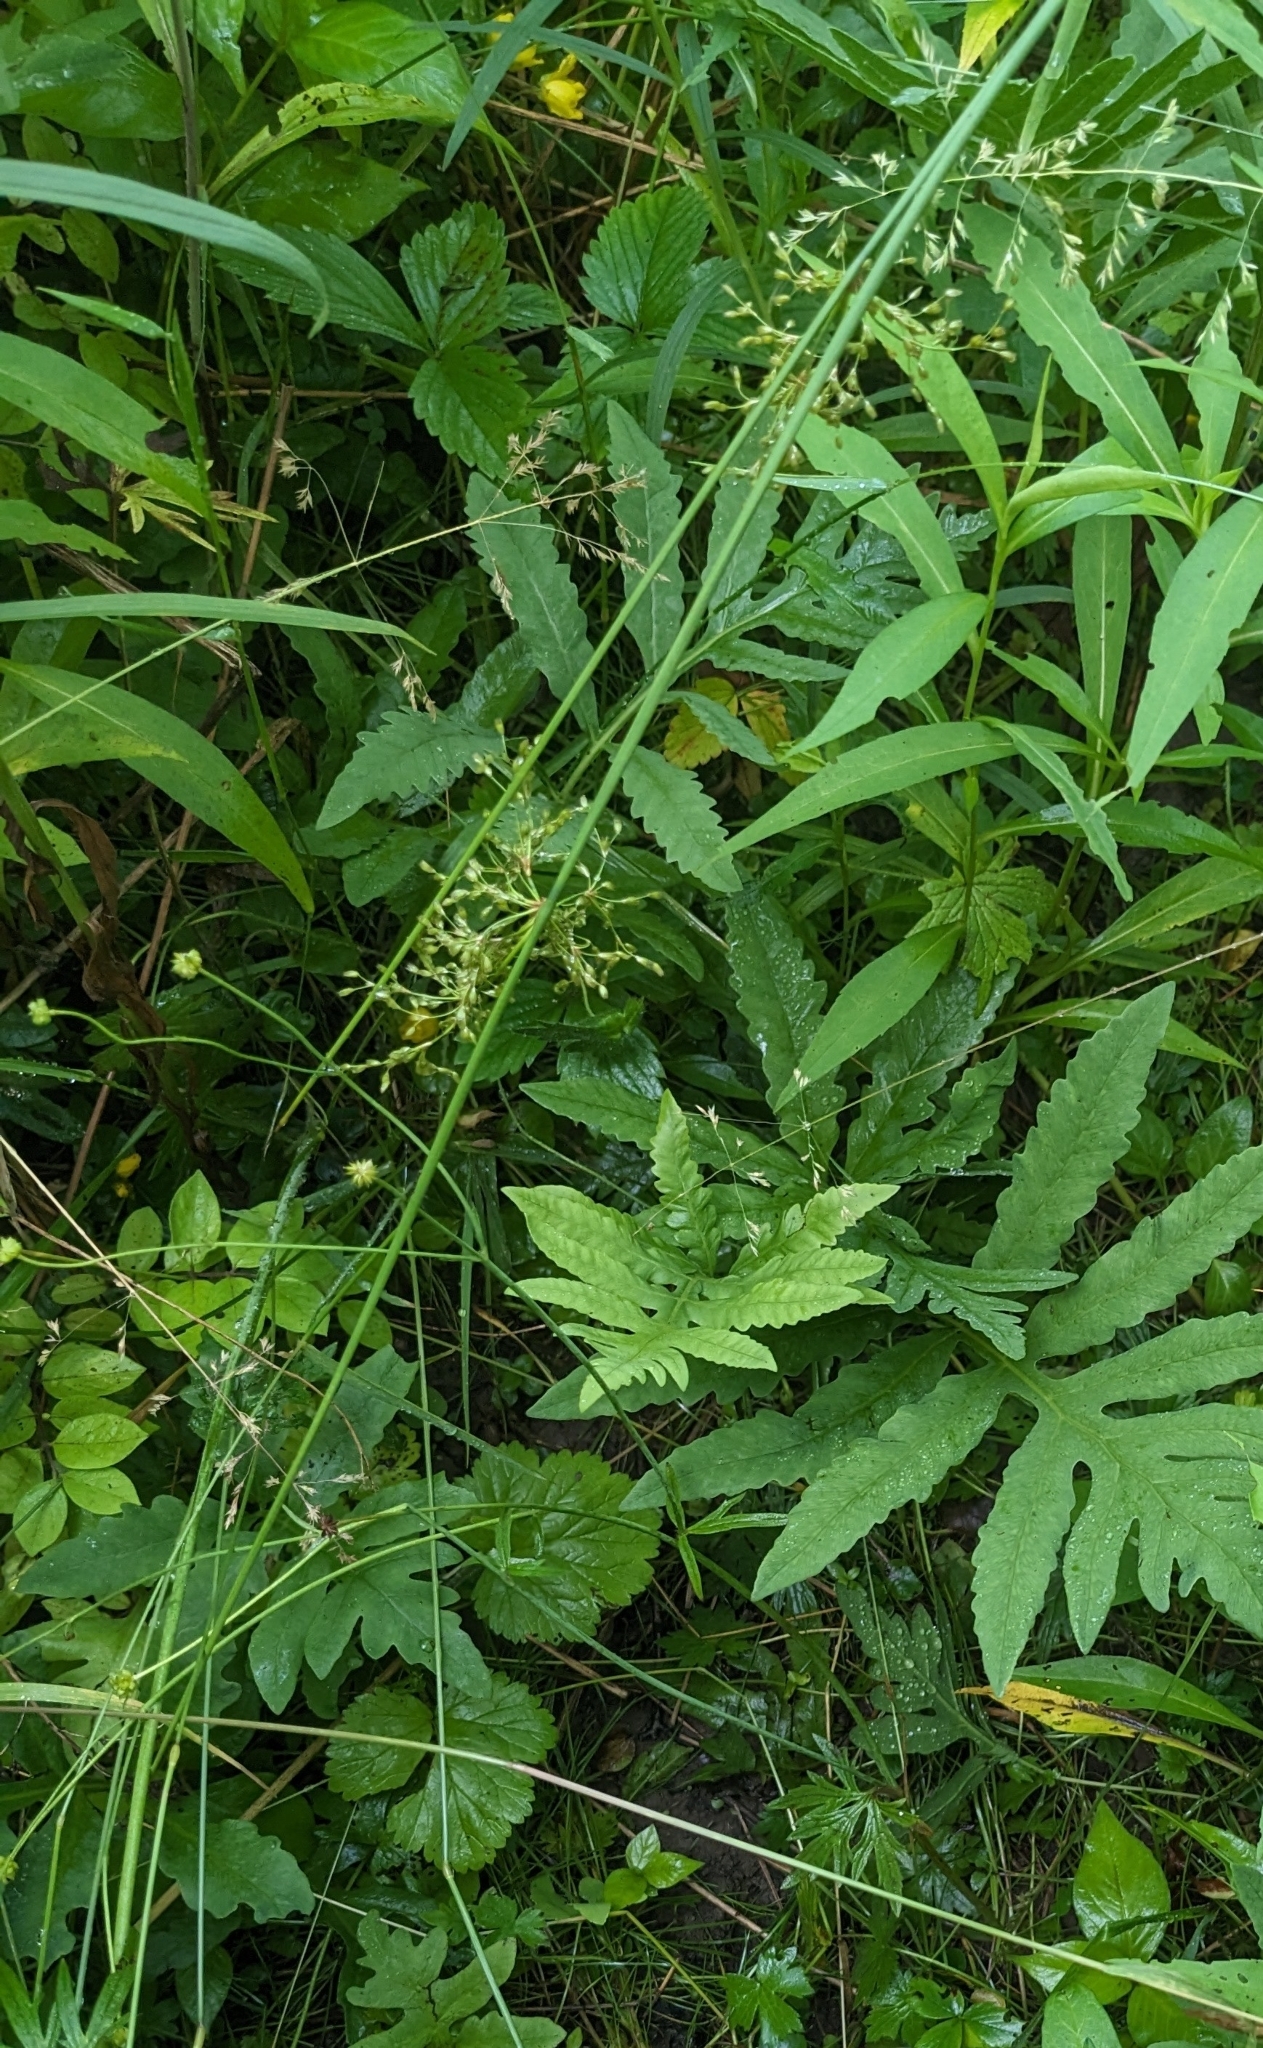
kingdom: Plantae
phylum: Tracheophyta
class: Liliopsida
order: Poales
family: Juncaceae
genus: Juncus
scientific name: Juncus effusus
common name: Soft rush
